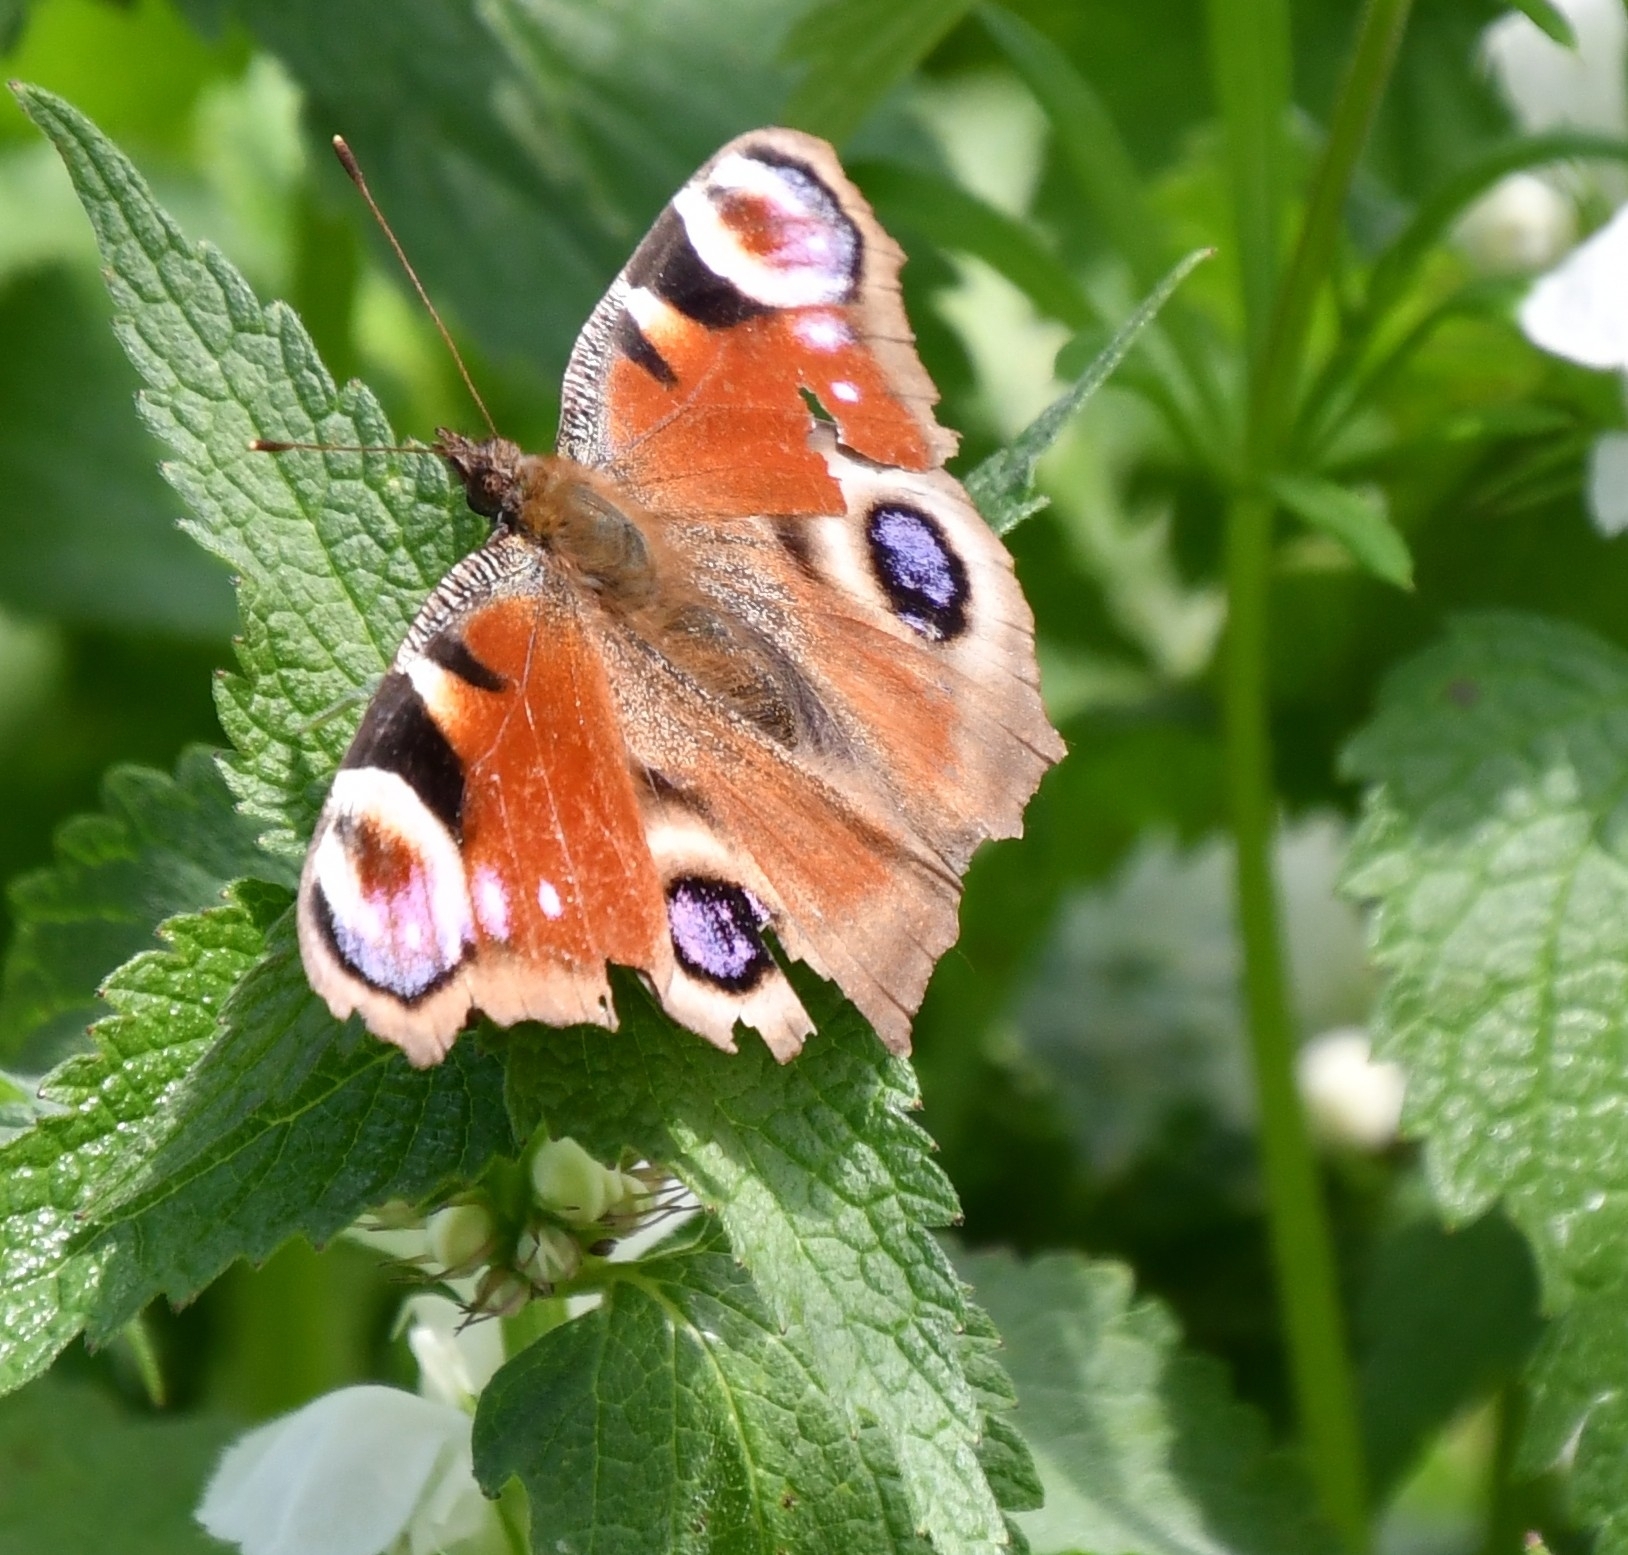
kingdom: Animalia
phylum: Arthropoda
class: Insecta
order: Lepidoptera
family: Nymphalidae
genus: Aglais
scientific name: Aglais io
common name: Peacock
